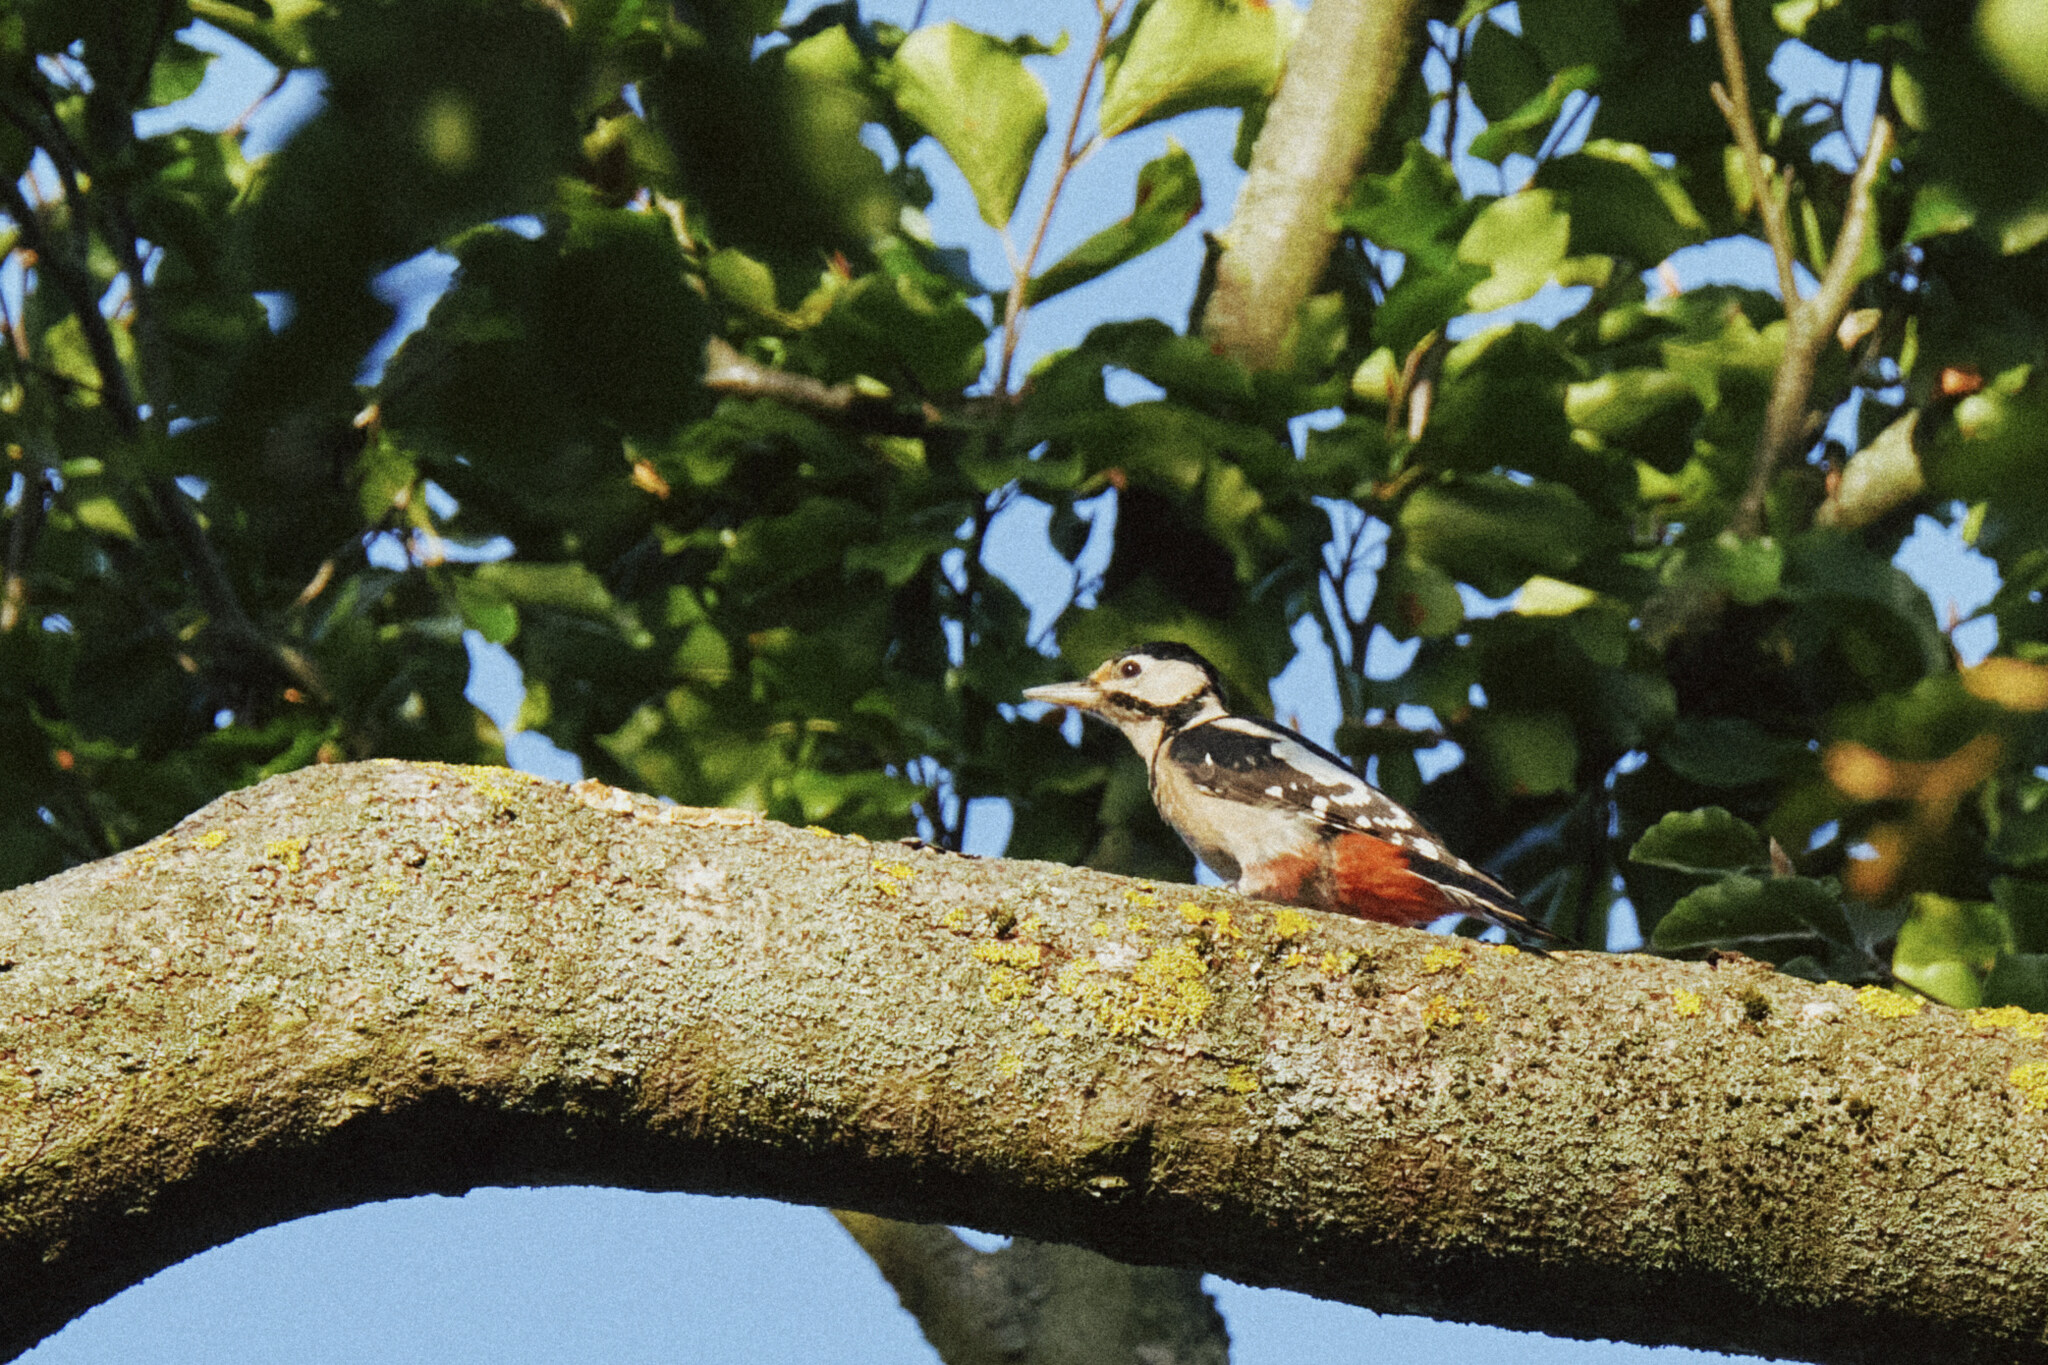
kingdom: Animalia
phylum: Chordata
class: Aves
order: Piciformes
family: Picidae
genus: Dendrocopos
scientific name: Dendrocopos major
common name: Great spotted woodpecker
